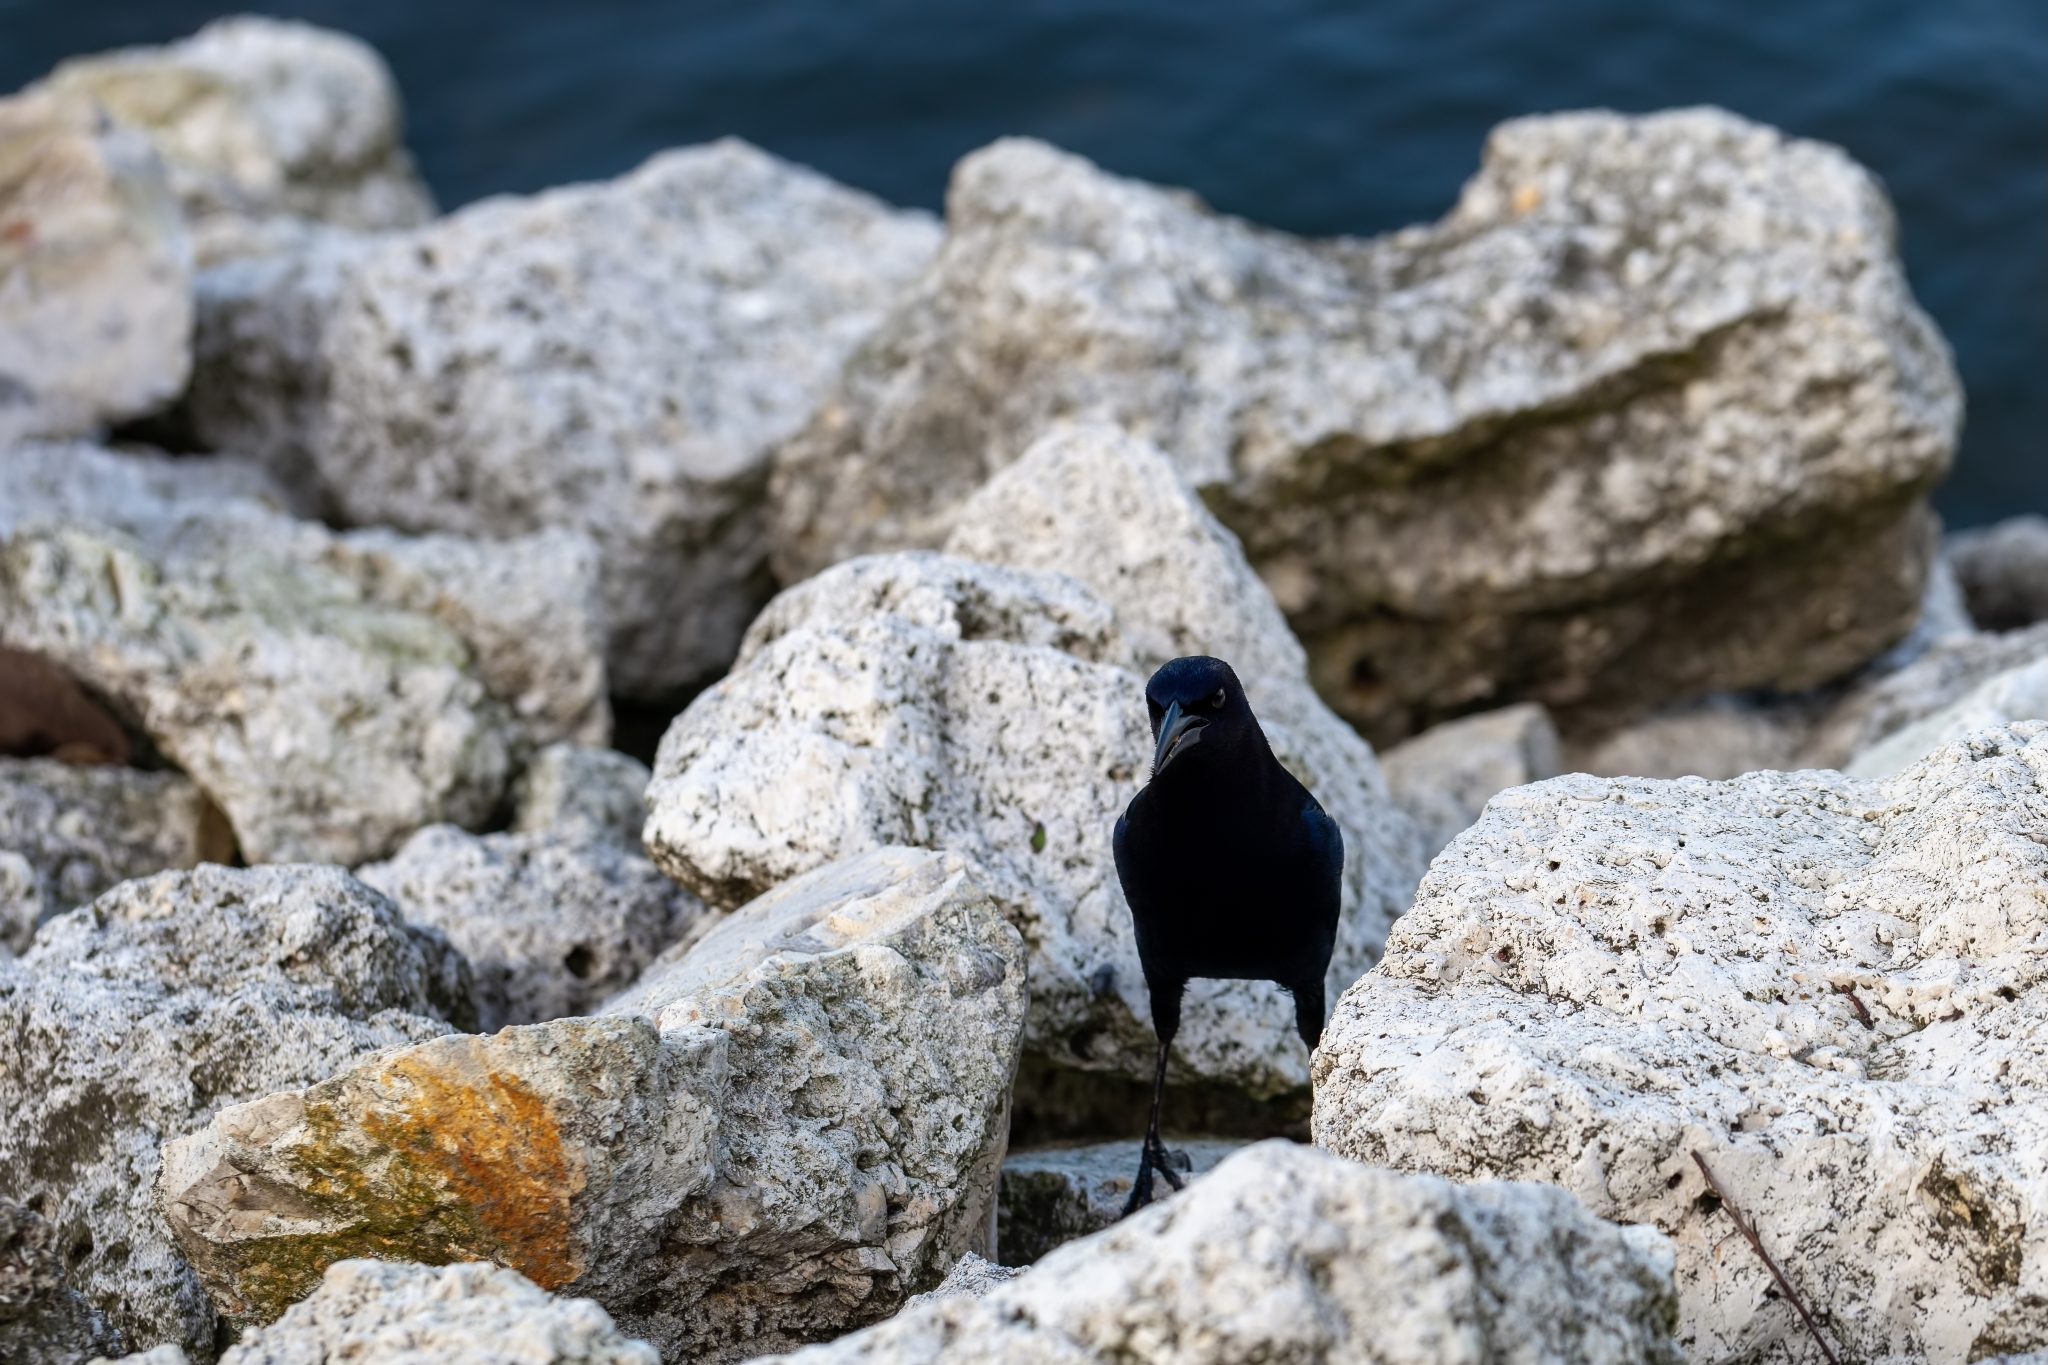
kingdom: Animalia
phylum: Chordata
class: Aves
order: Passeriformes
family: Icteridae
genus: Quiscalus
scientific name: Quiscalus major
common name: Boat-tailed grackle
